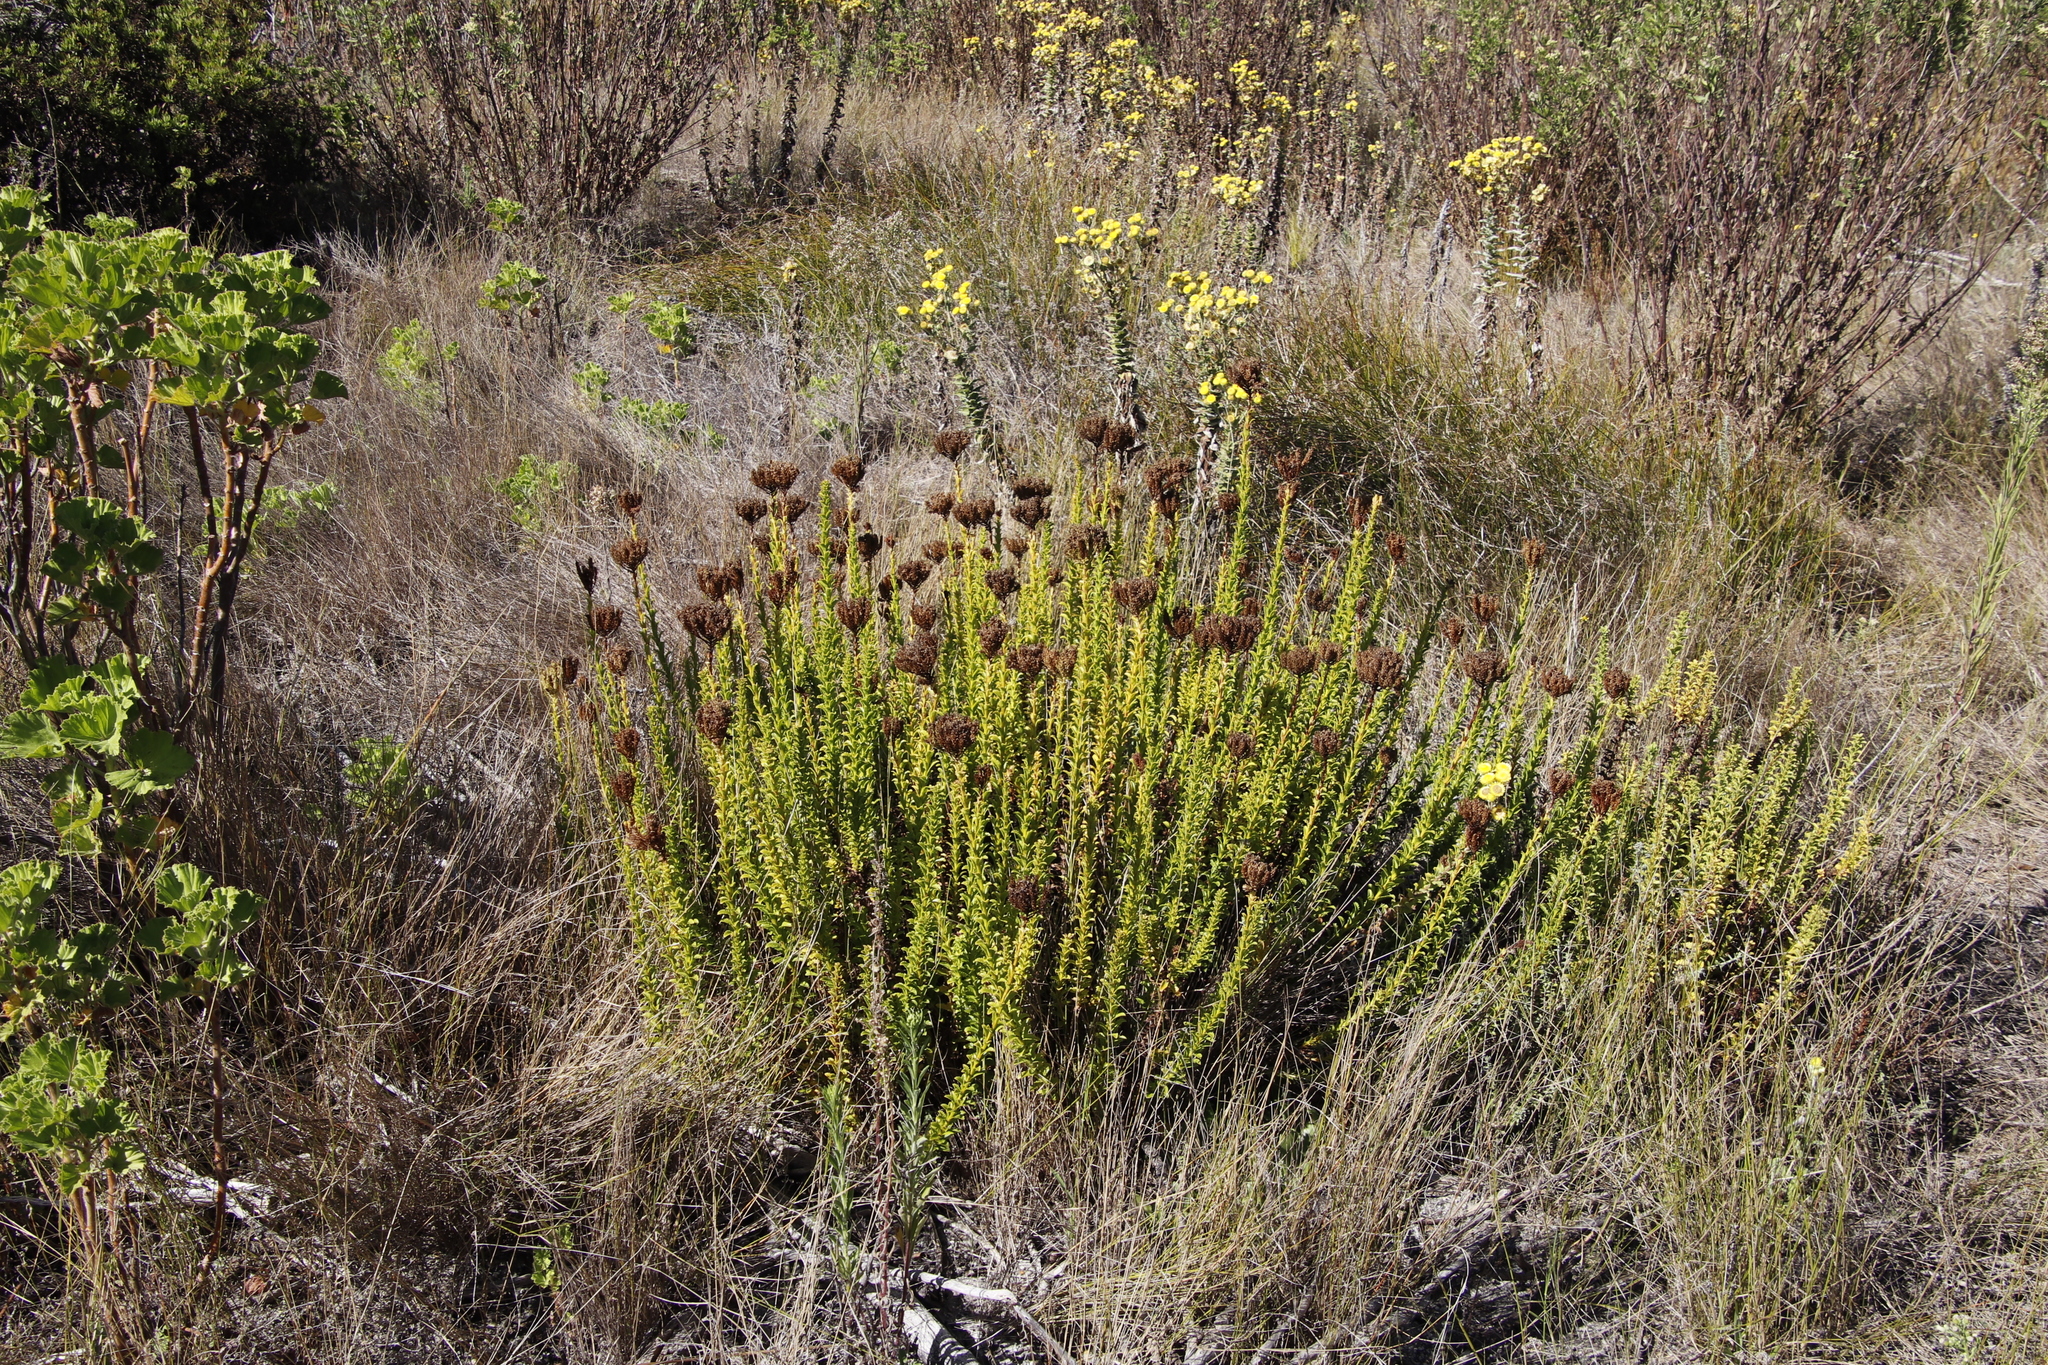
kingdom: Plantae
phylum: Tracheophyta
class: Magnoliopsida
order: Lamiales
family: Scrophulariaceae
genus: Pseudoselago
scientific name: Pseudoselago serrata
